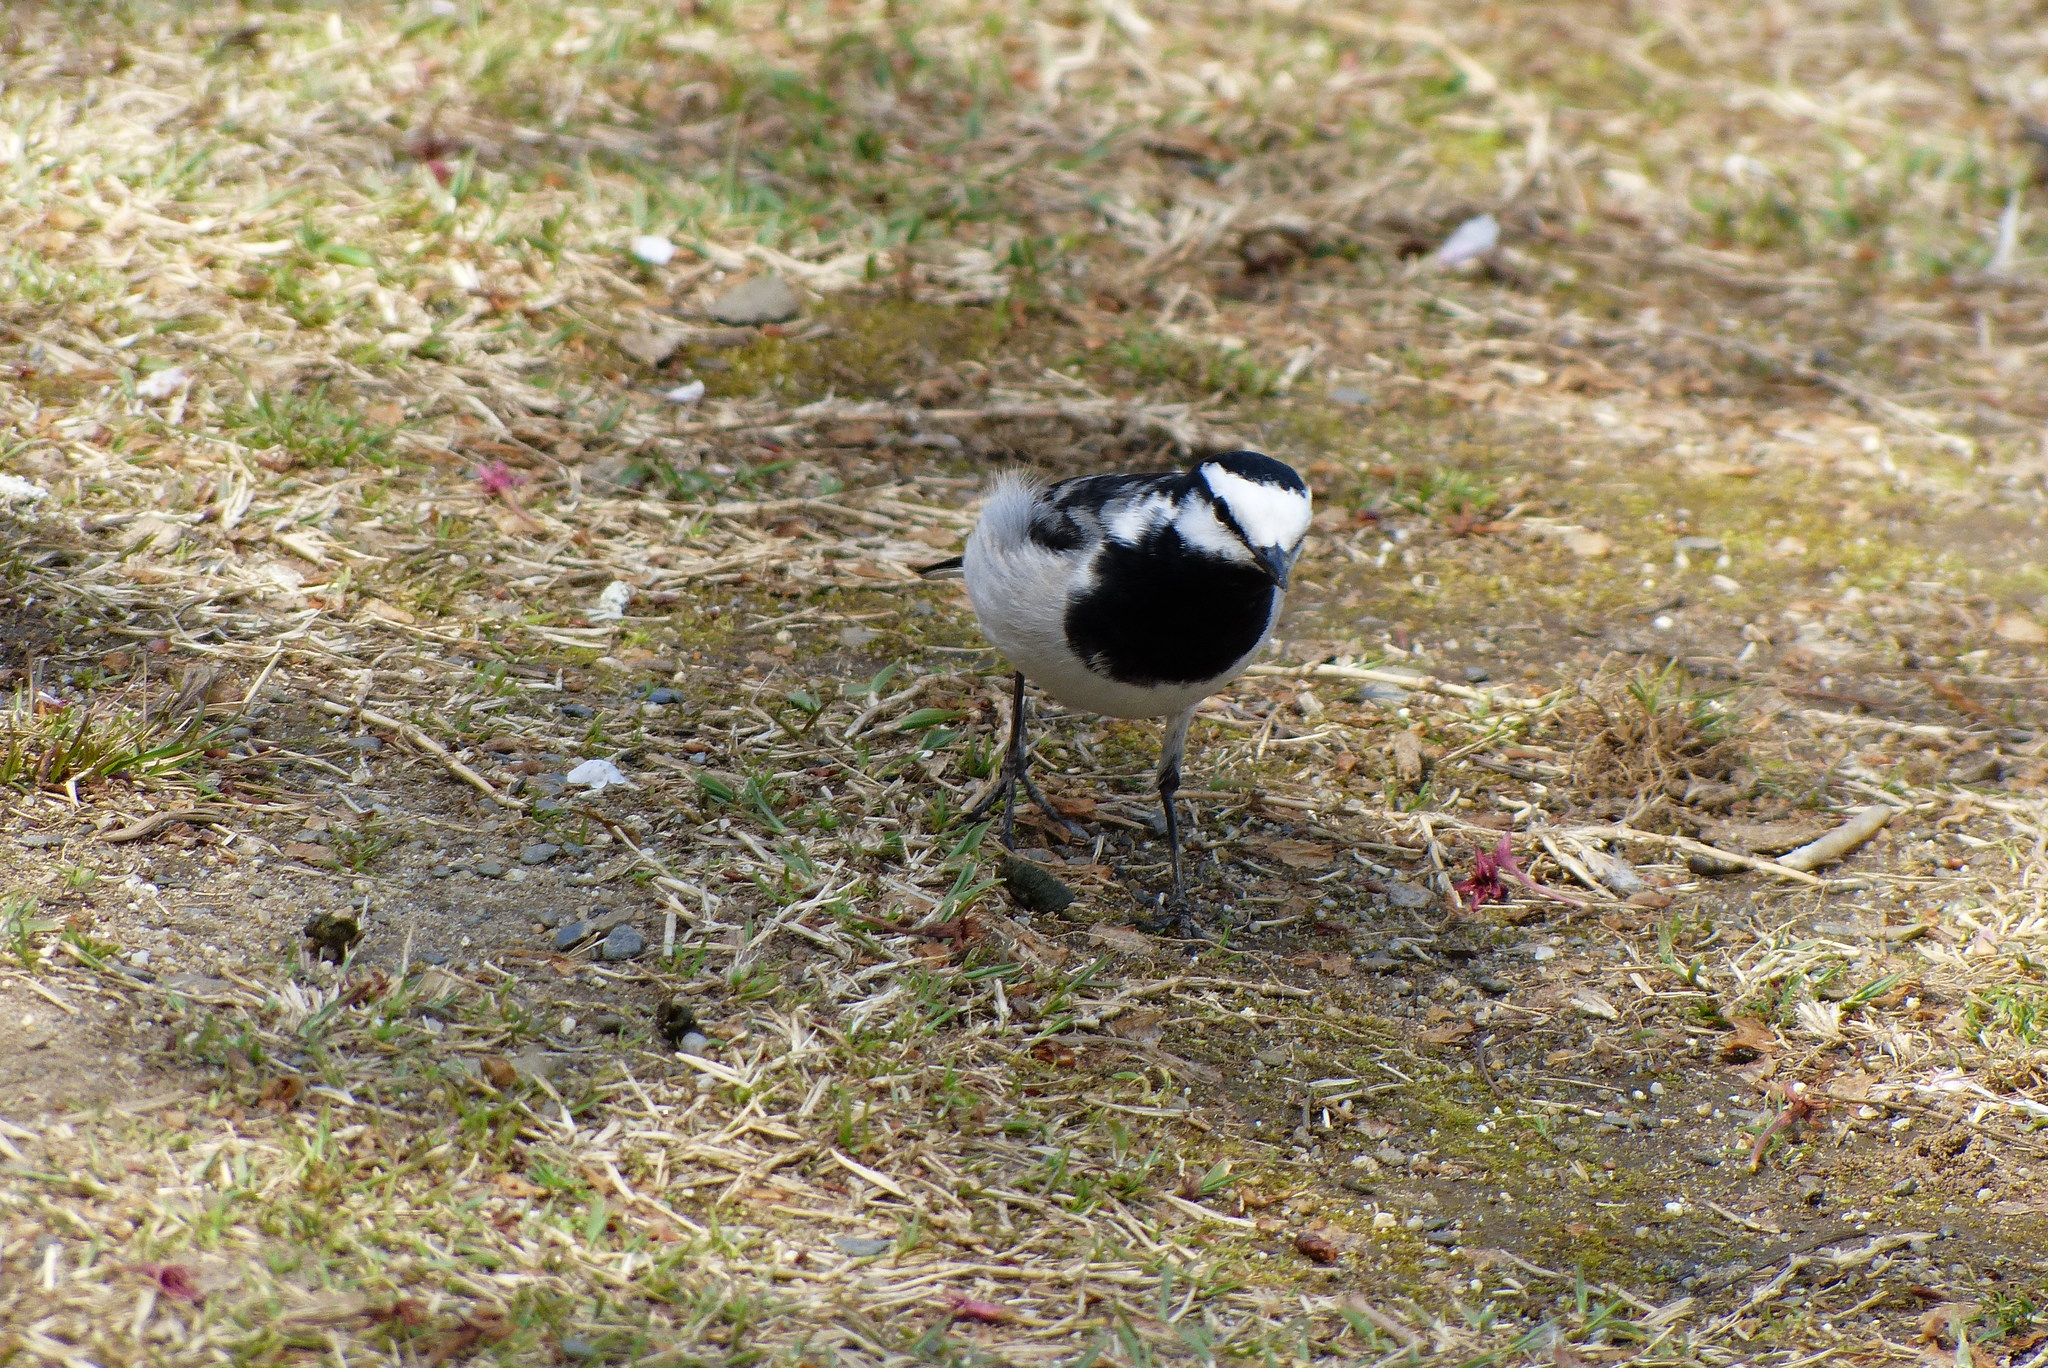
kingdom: Animalia
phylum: Chordata
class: Aves
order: Passeriformes
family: Motacillidae
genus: Motacilla
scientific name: Motacilla alba
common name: White wagtail
